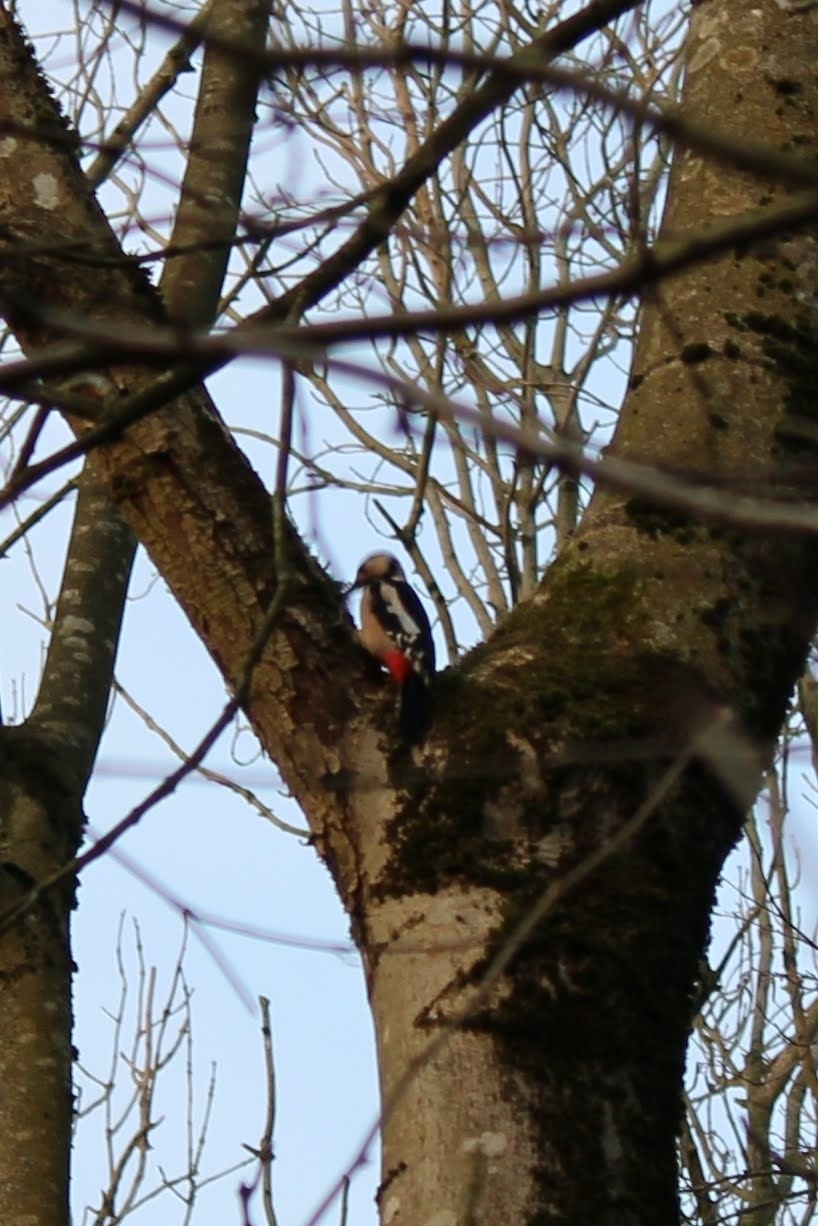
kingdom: Animalia
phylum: Chordata
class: Aves
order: Piciformes
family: Picidae
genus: Dendrocopos
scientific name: Dendrocopos major
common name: Great spotted woodpecker
